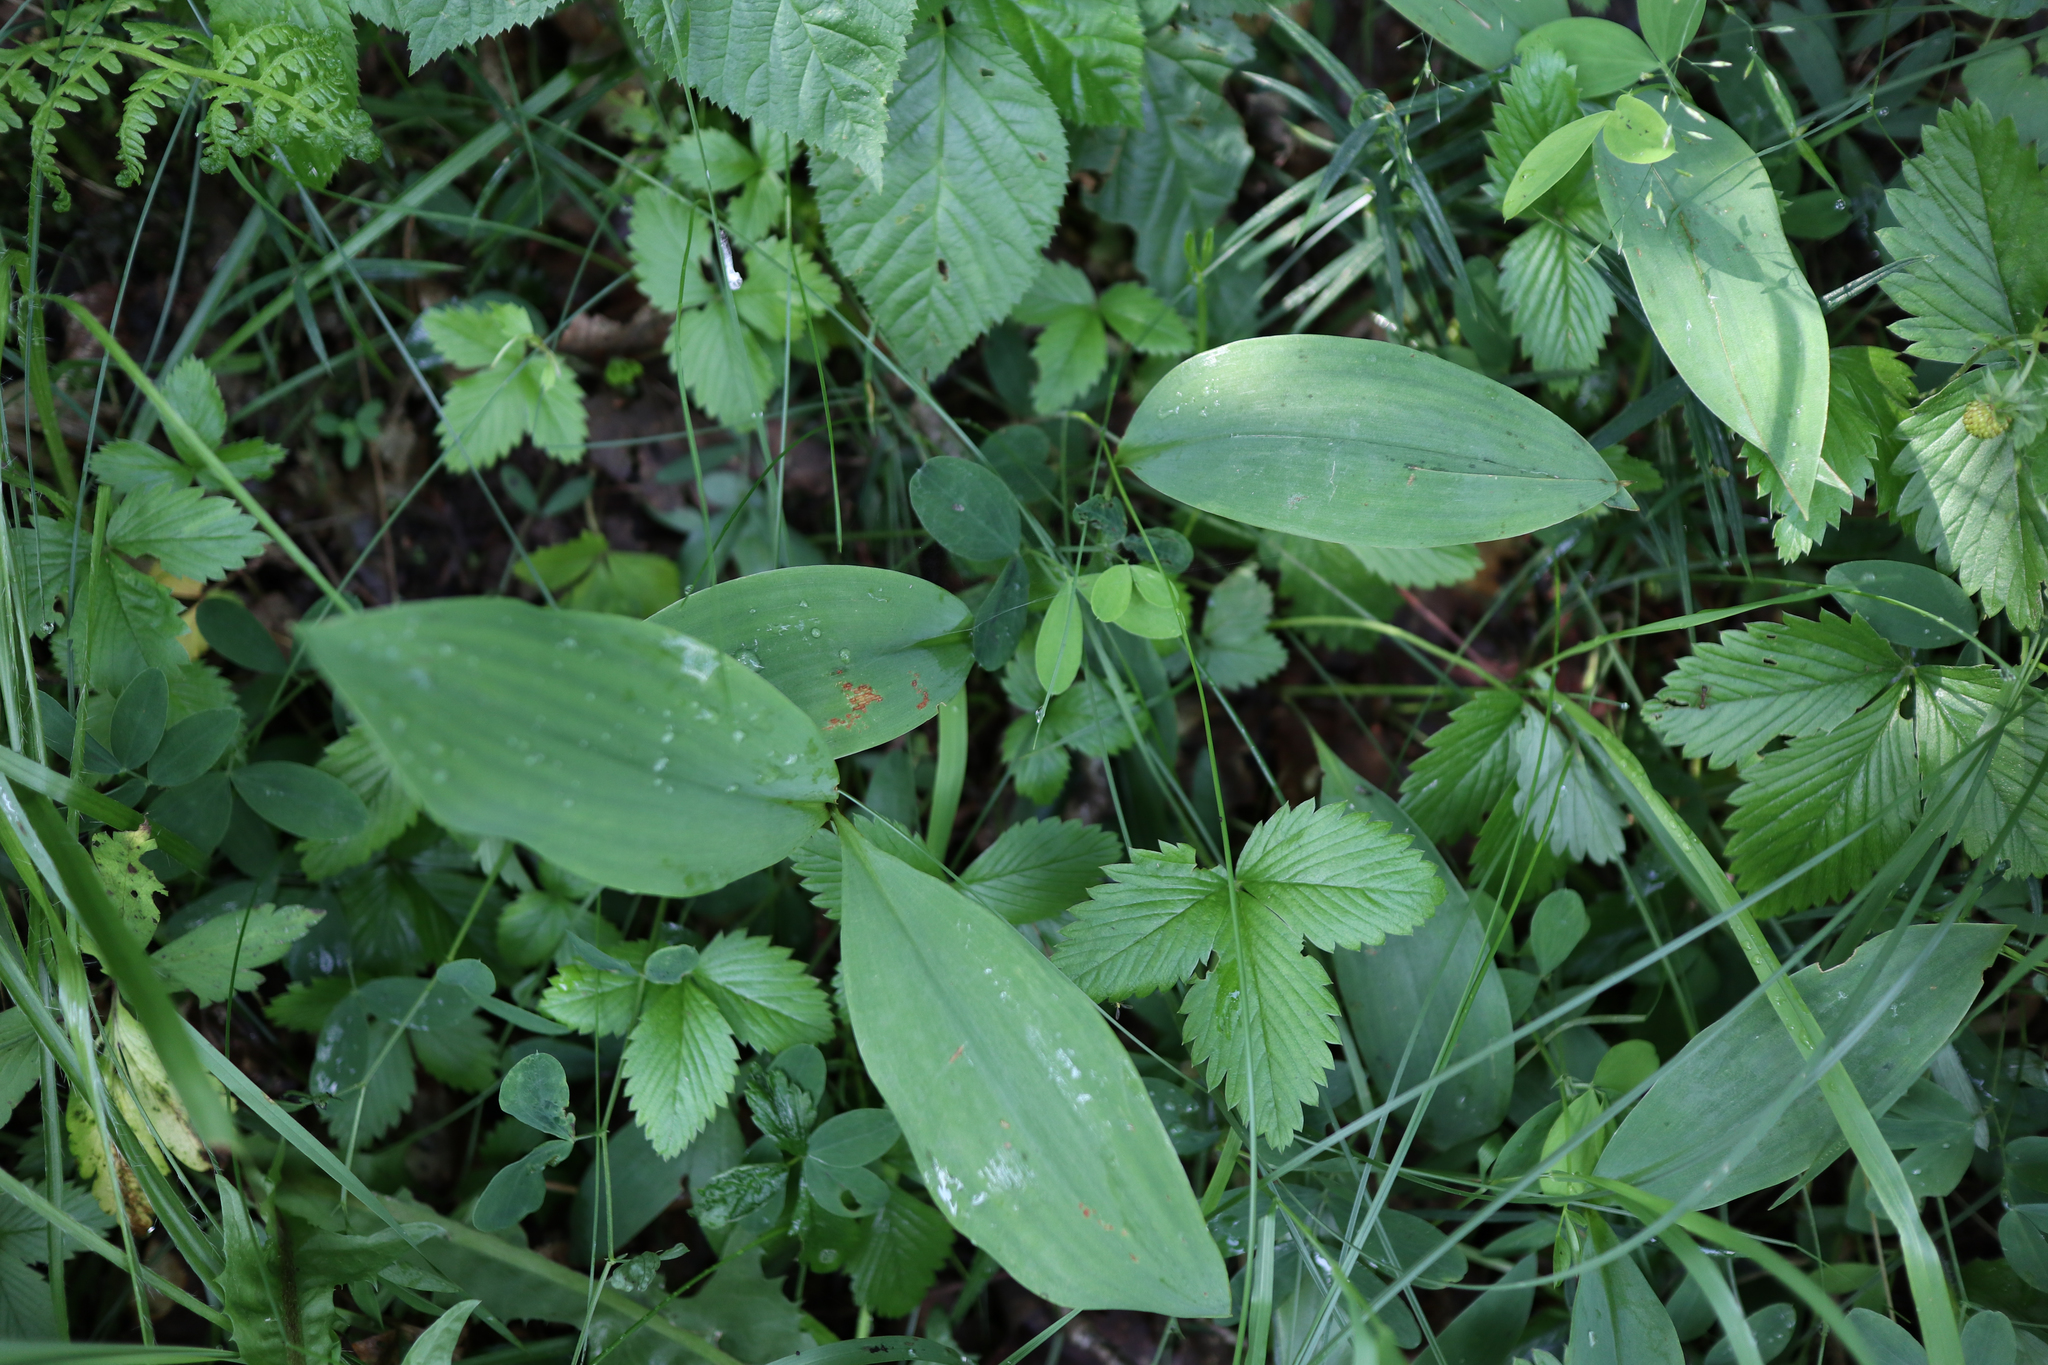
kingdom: Plantae
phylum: Tracheophyta
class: Liliopsida
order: Asparagales
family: Asparagaceae
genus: Convallaria
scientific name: Convallaria majalis
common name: Lily-of-the-valley
